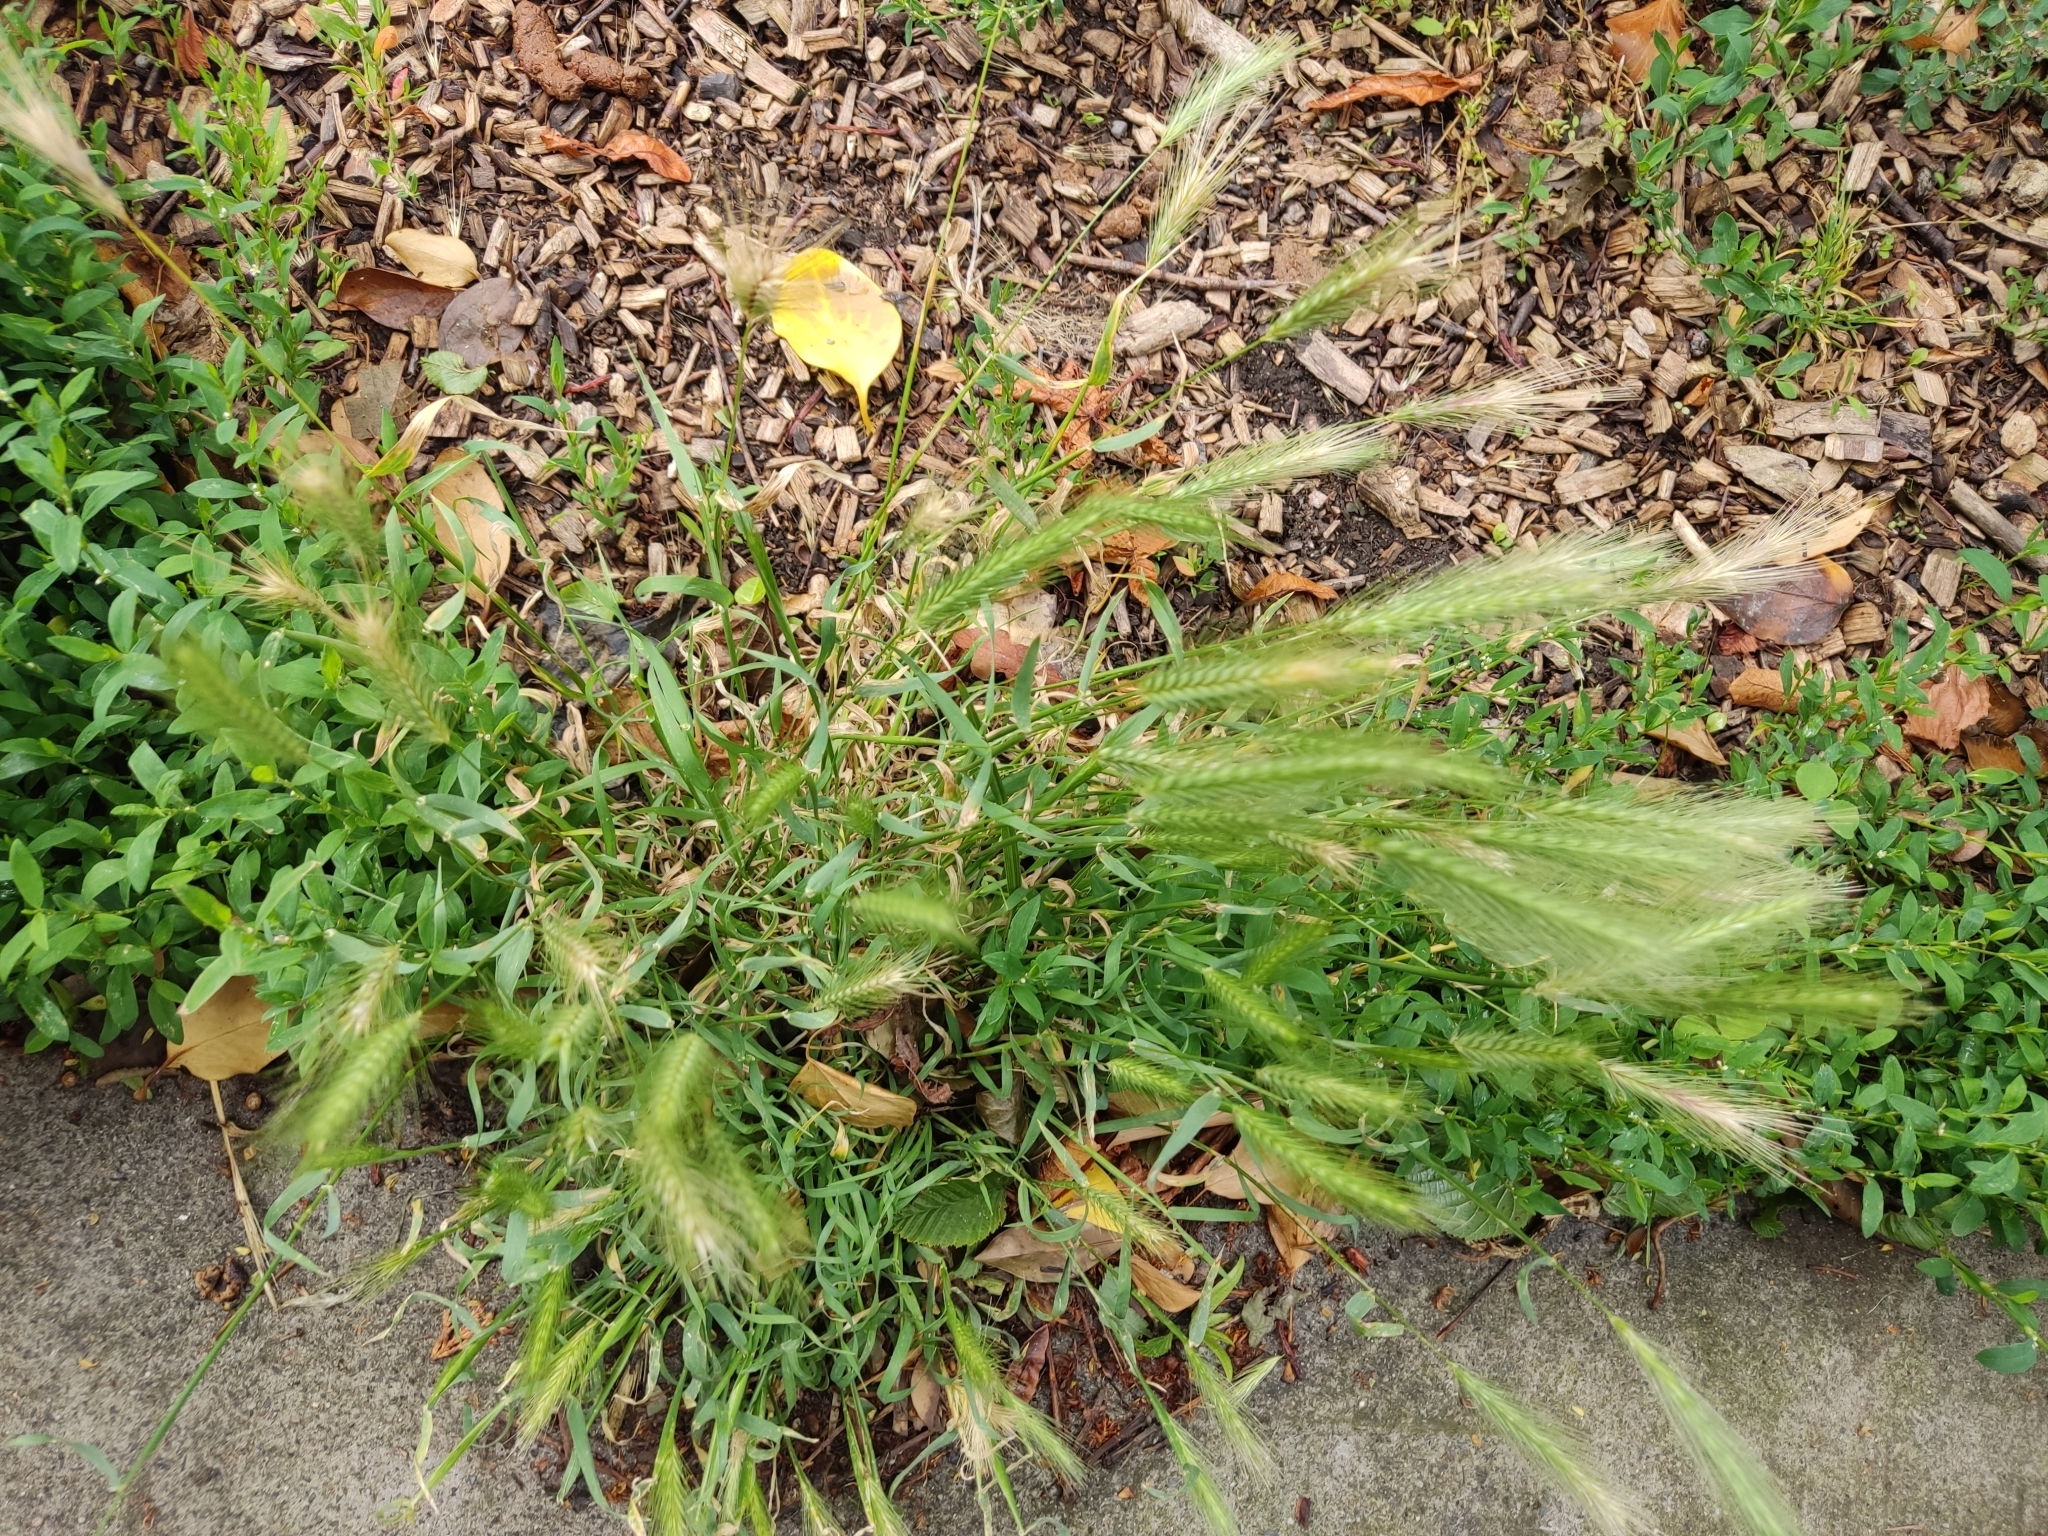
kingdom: Plantae
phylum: Tracheophyta
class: Liliopsida
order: Poales
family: Poaceae
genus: Hordeum
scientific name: Hordeum murinum
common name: Wall barley
